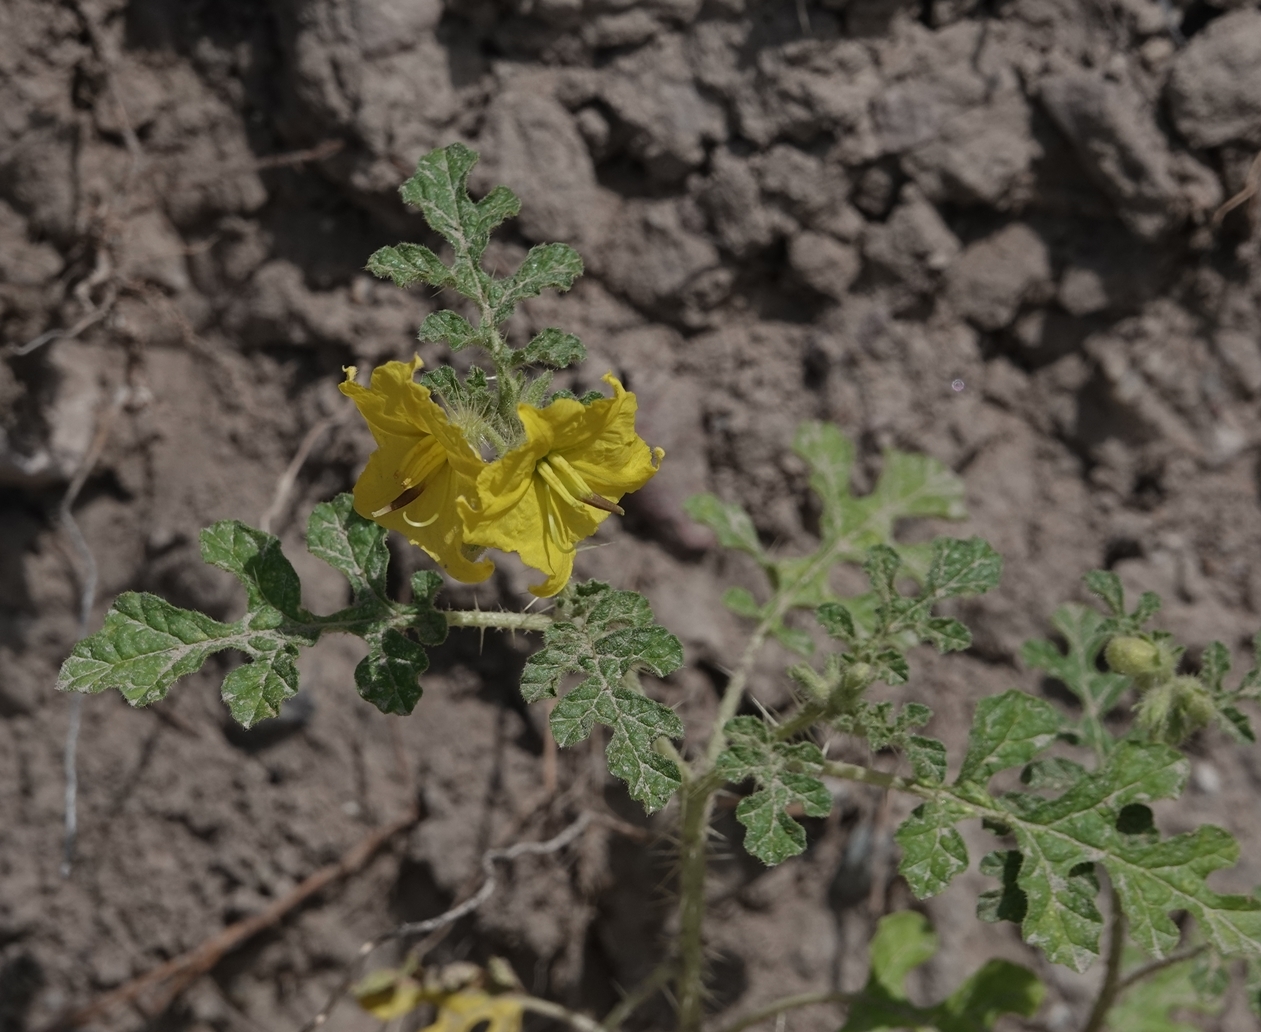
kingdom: Plantae
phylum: Tracheophyta
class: Magnoliopsida
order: Solanales
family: Solanaceae
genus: Solanum
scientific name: Solanum angustifolium
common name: Buffalobur nightshade
